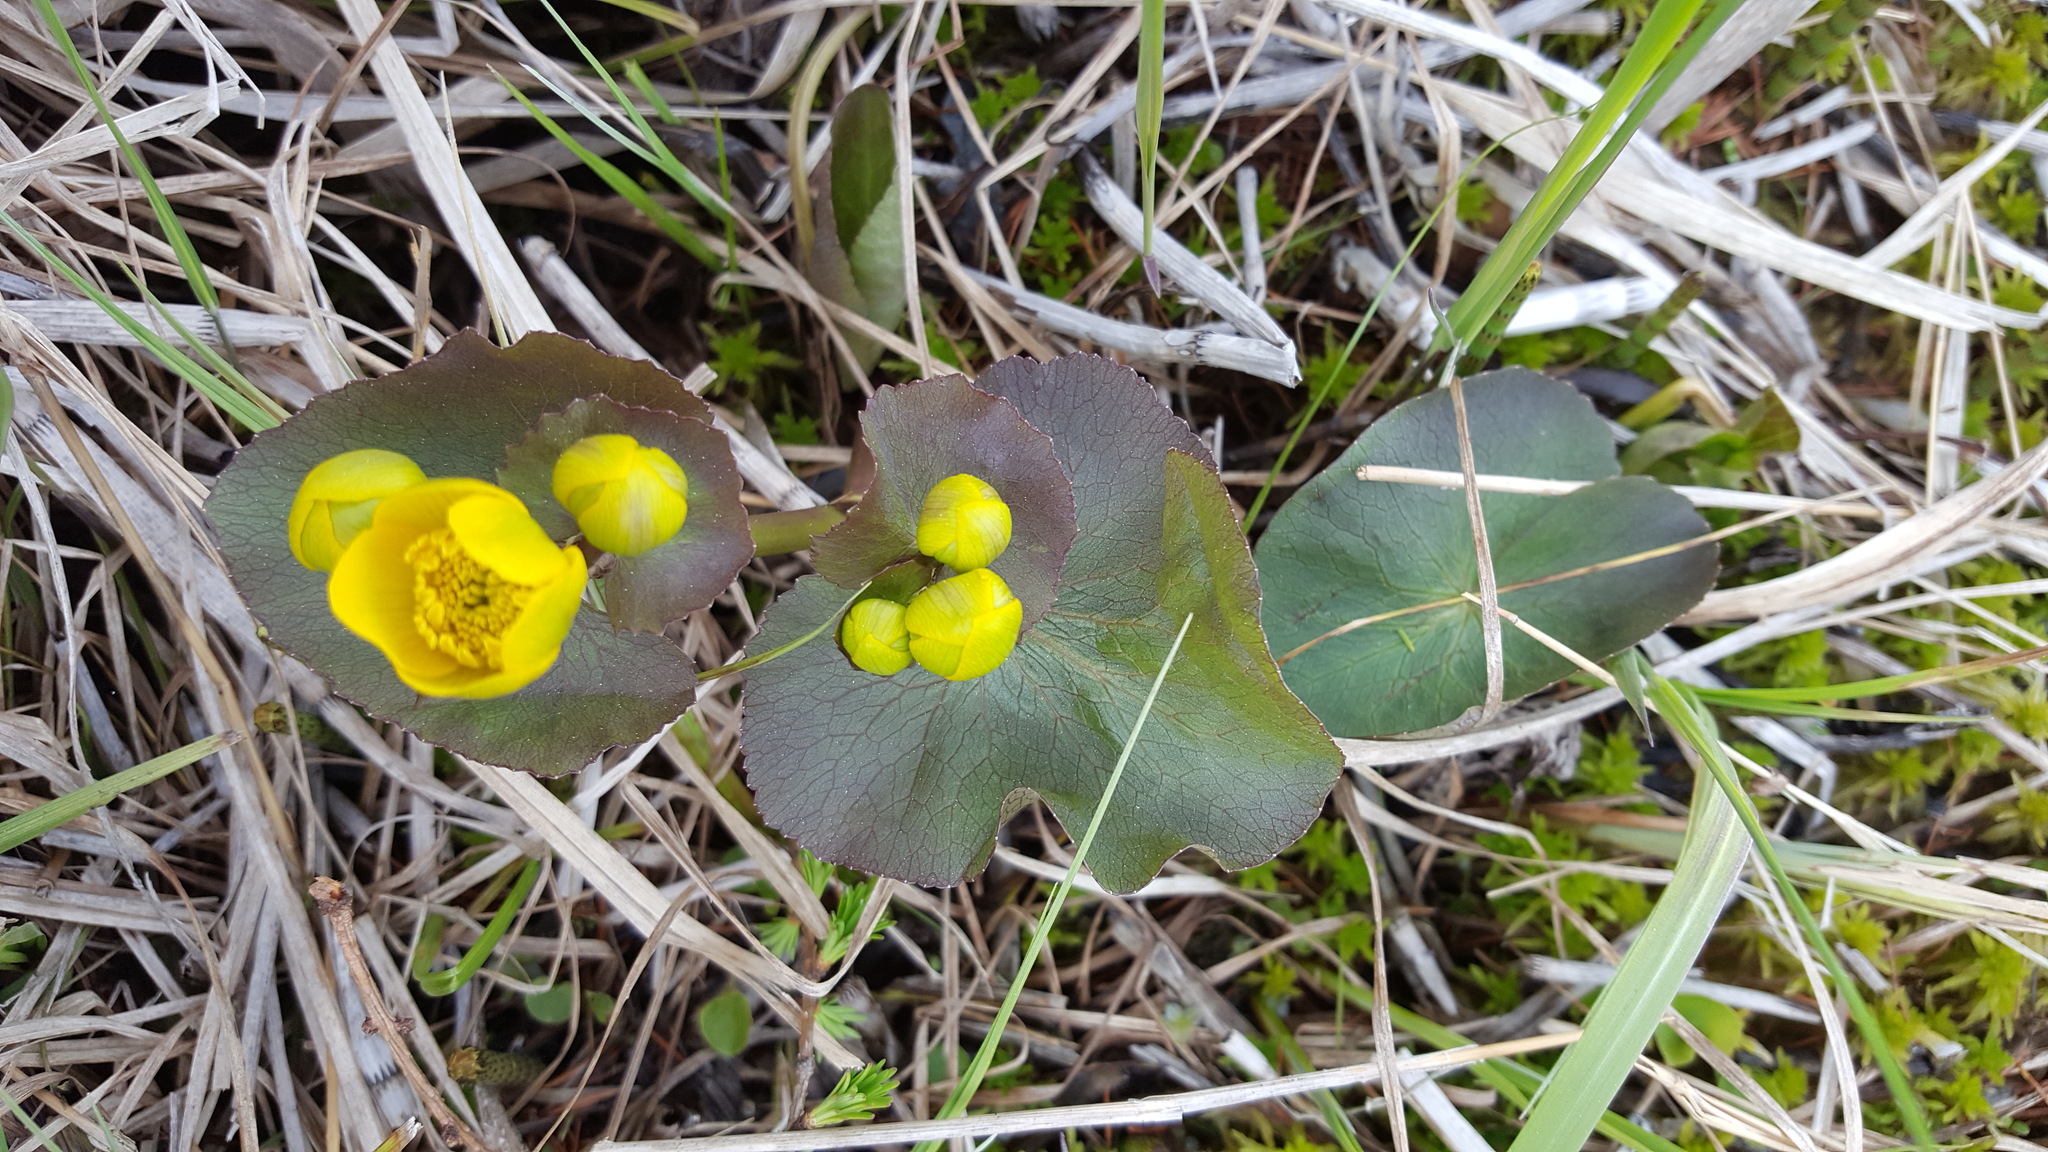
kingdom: Plantae
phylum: Tracheophyta
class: Magnoliopsida
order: Ranunculales
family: Ranunculaceae
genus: Caltha
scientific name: Caltha palustris
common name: Marsh marigold
